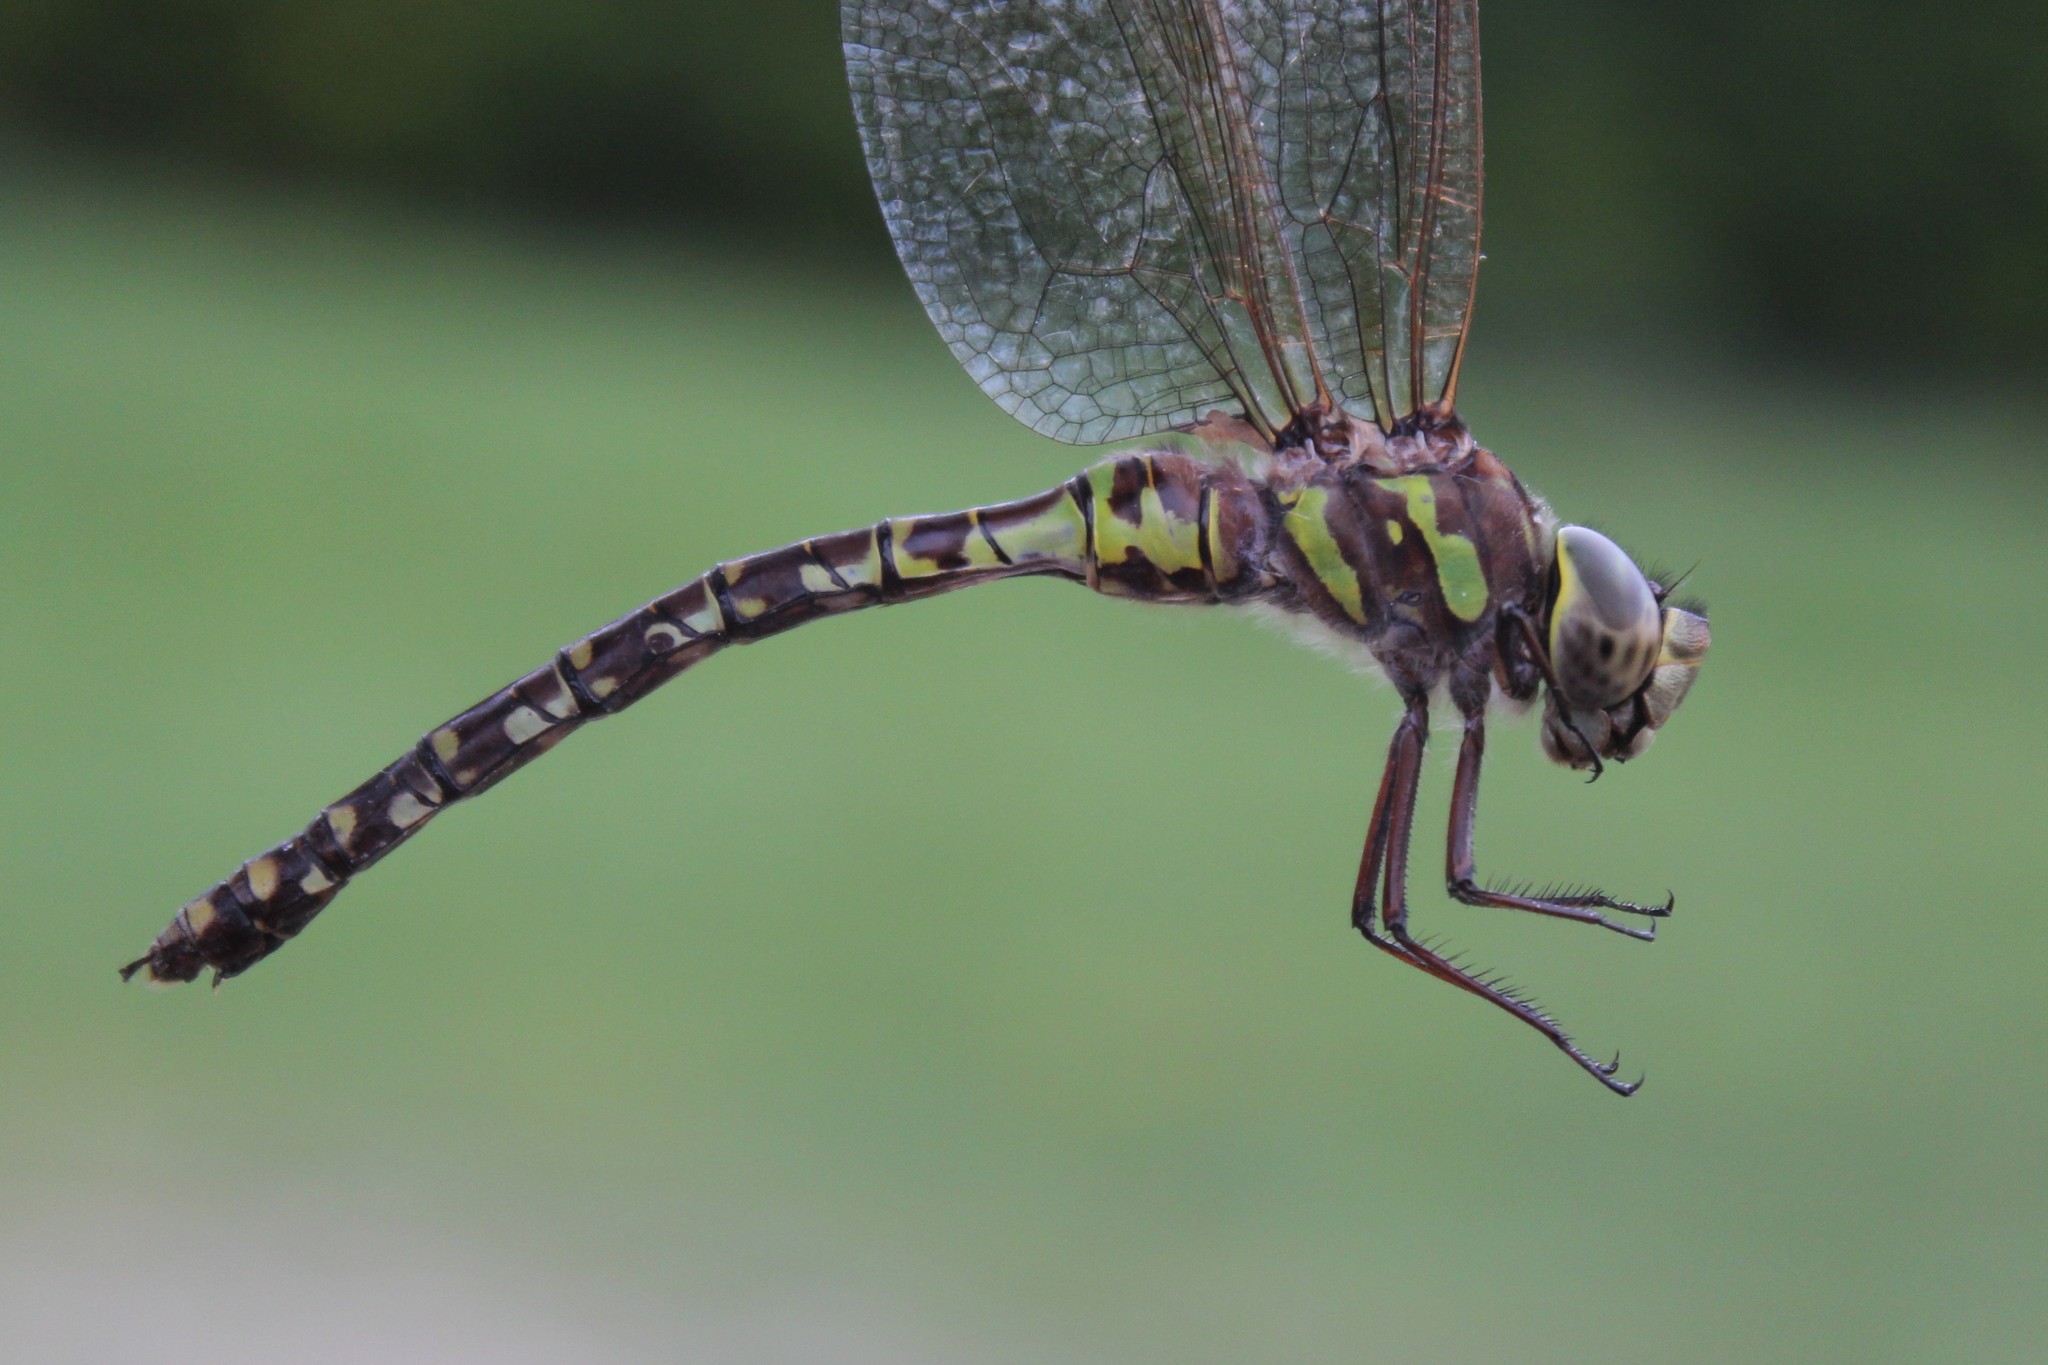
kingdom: Animalia
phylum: Arthropoda
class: Insecta
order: Odonata
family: Aeshnidae
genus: Aeshna
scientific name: Aeshna canadensis
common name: Canada darner
